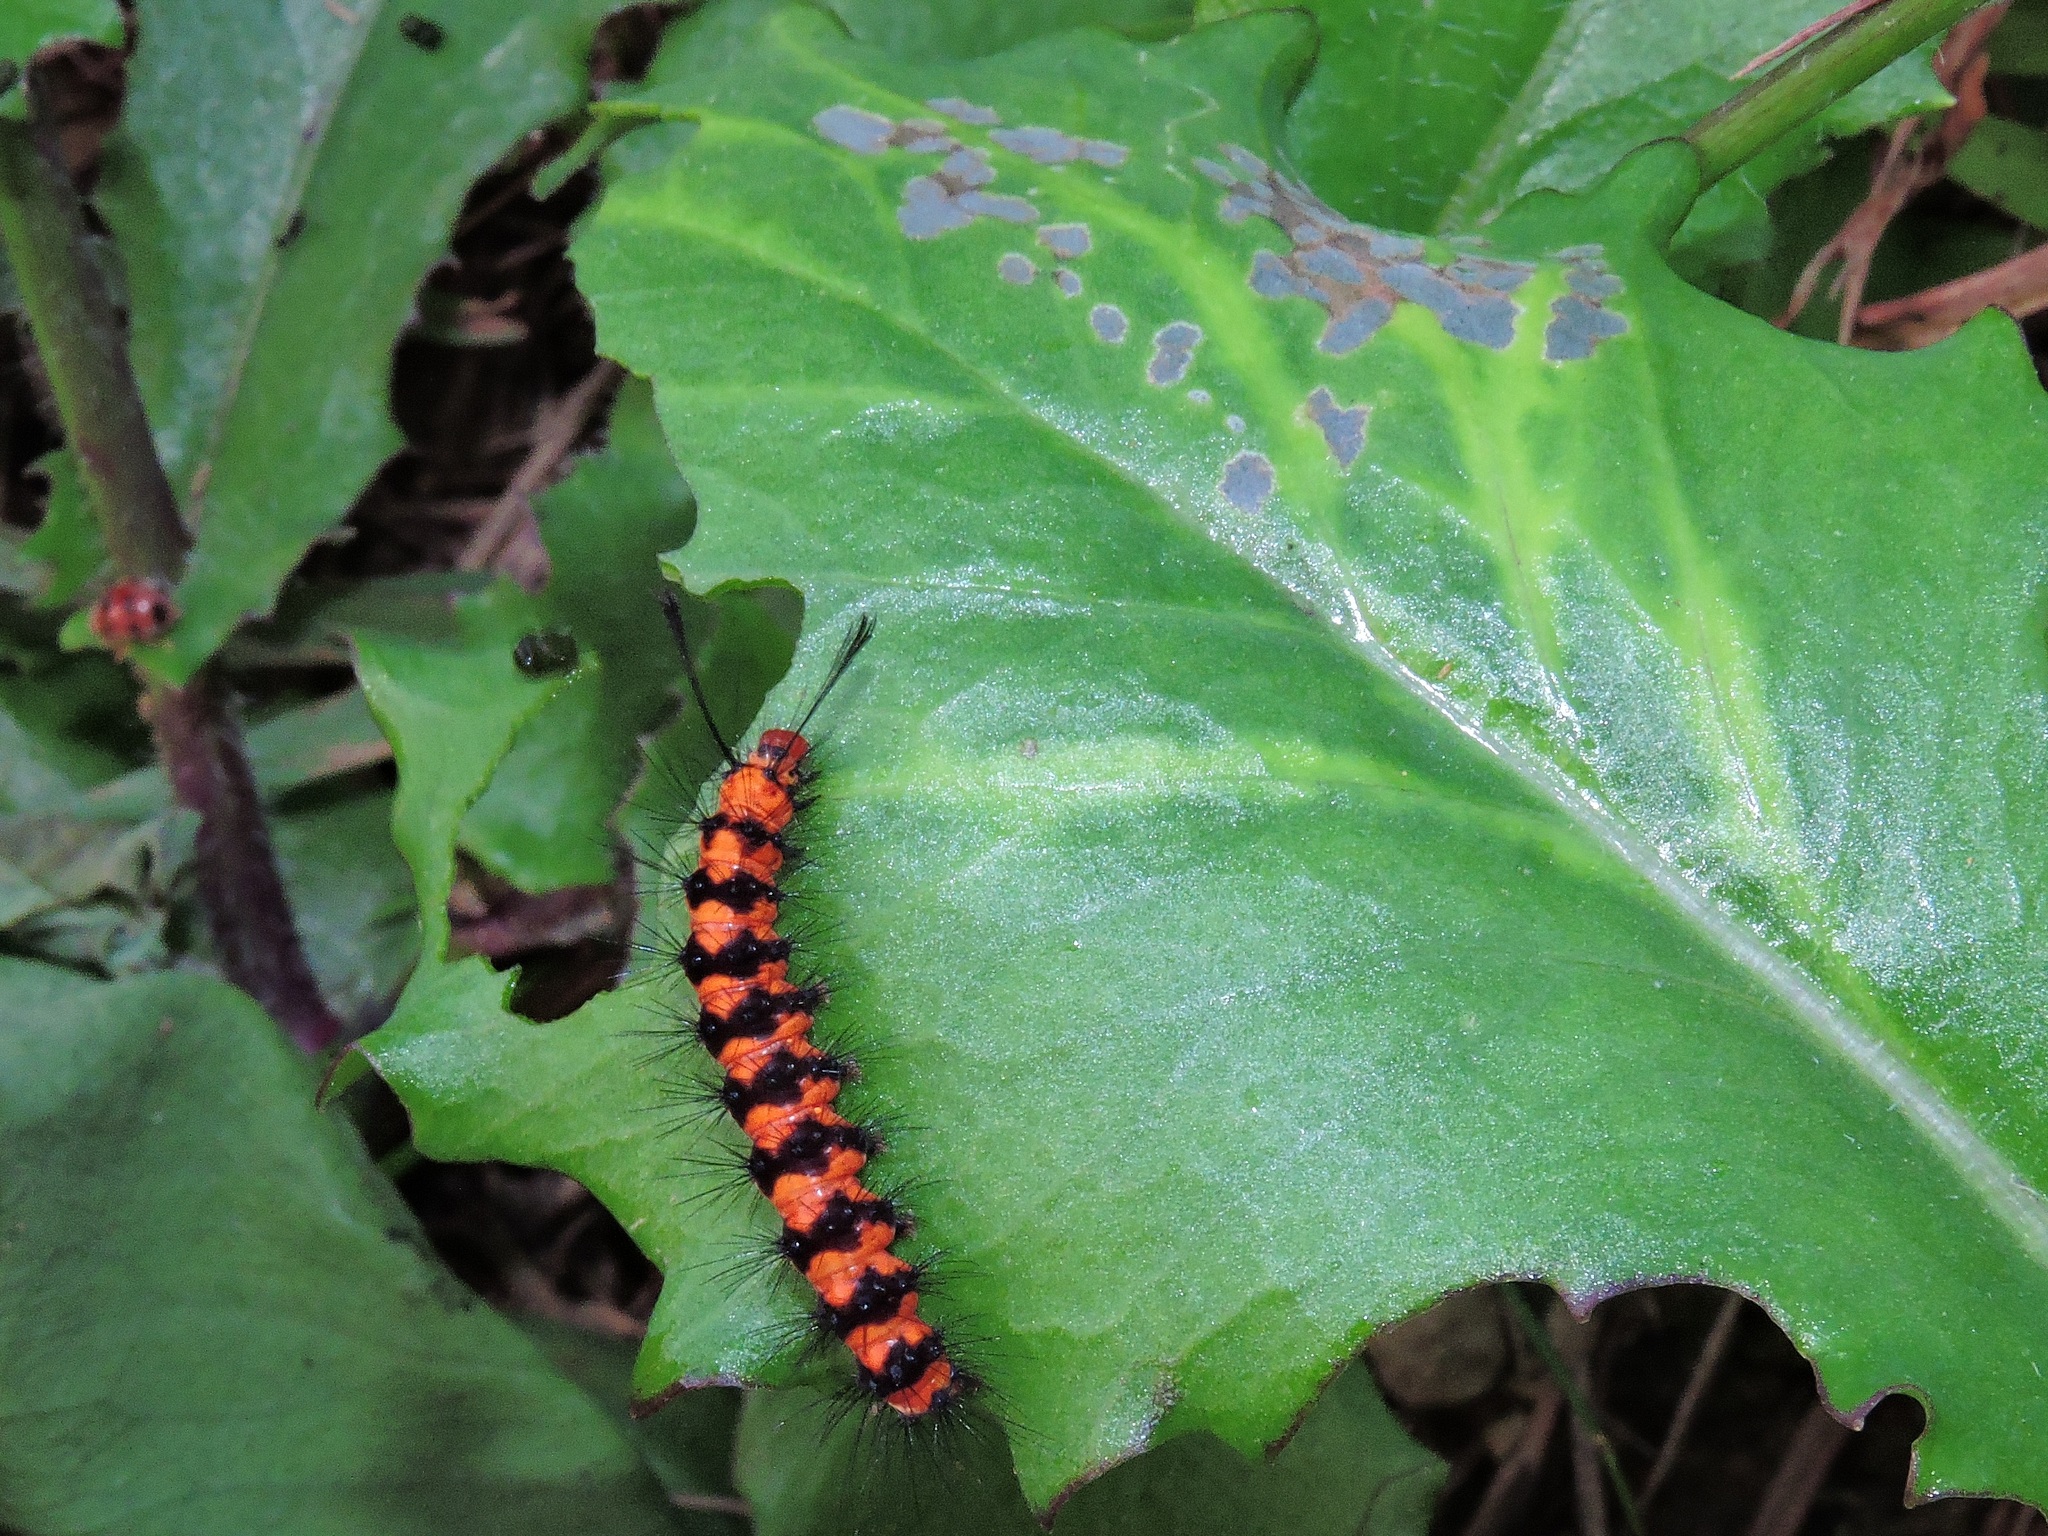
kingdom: Animalia
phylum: Arthropoda
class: Insecta
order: Lepidoptera
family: Erebidae
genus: Nyctemera
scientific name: Nyctemera lacticinia
